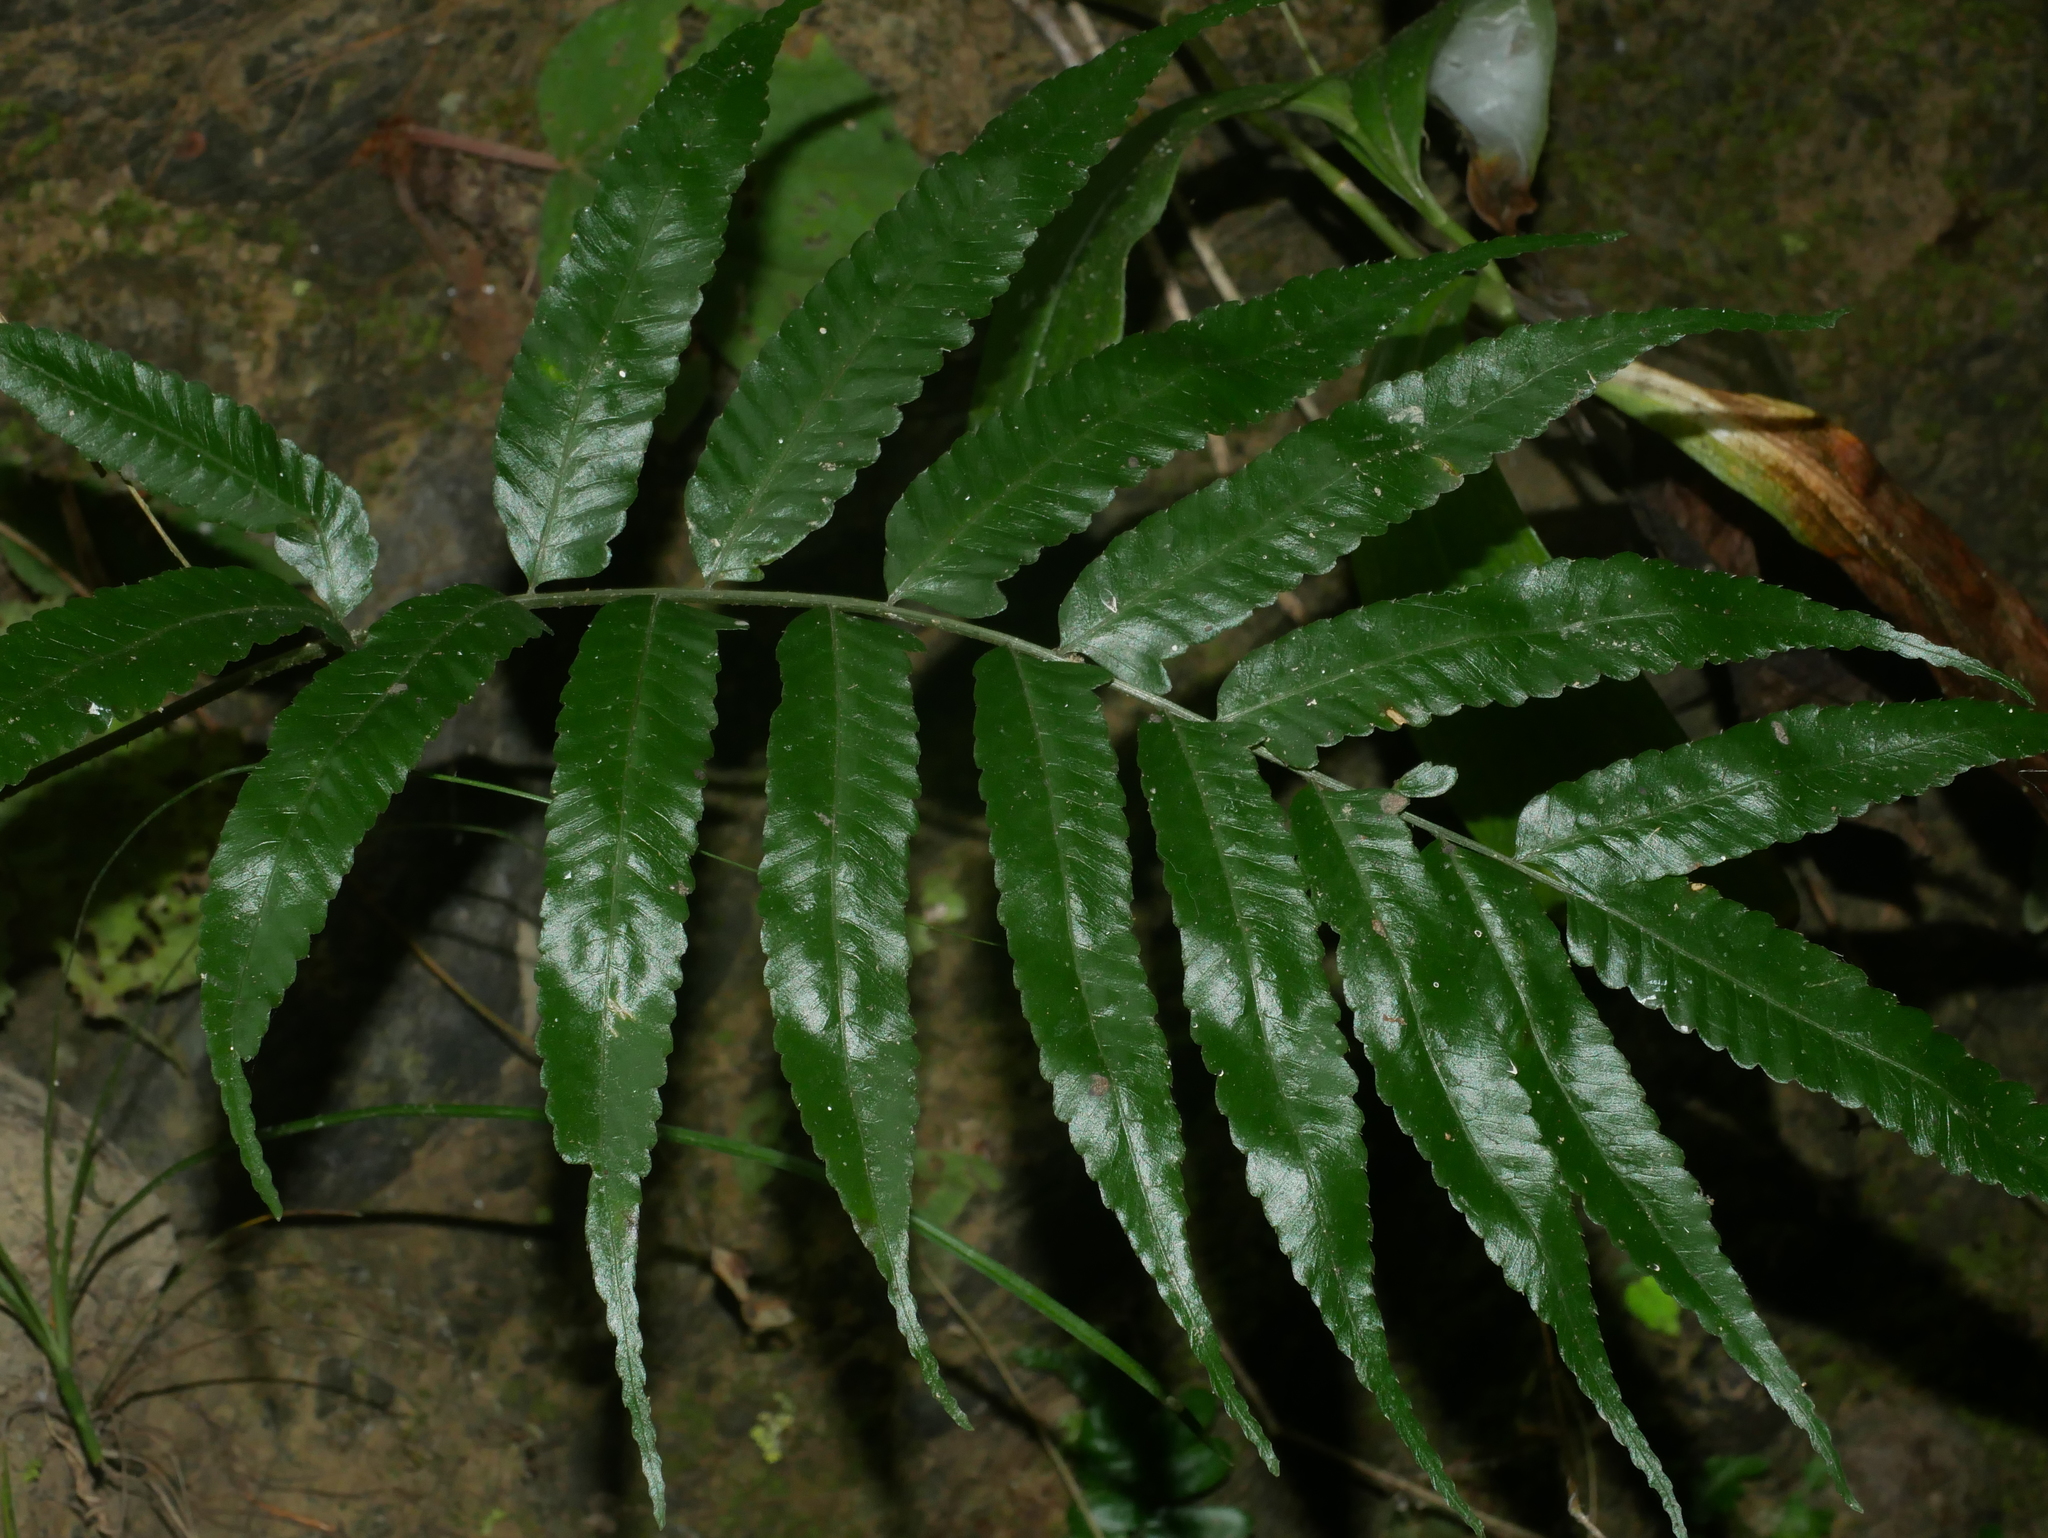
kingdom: Plantae
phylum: Tracheophyta
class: Polypodiopsida
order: Polypodiales
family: Dryopteridaceae
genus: Bolbitis
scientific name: Bolbitis angustipinna
